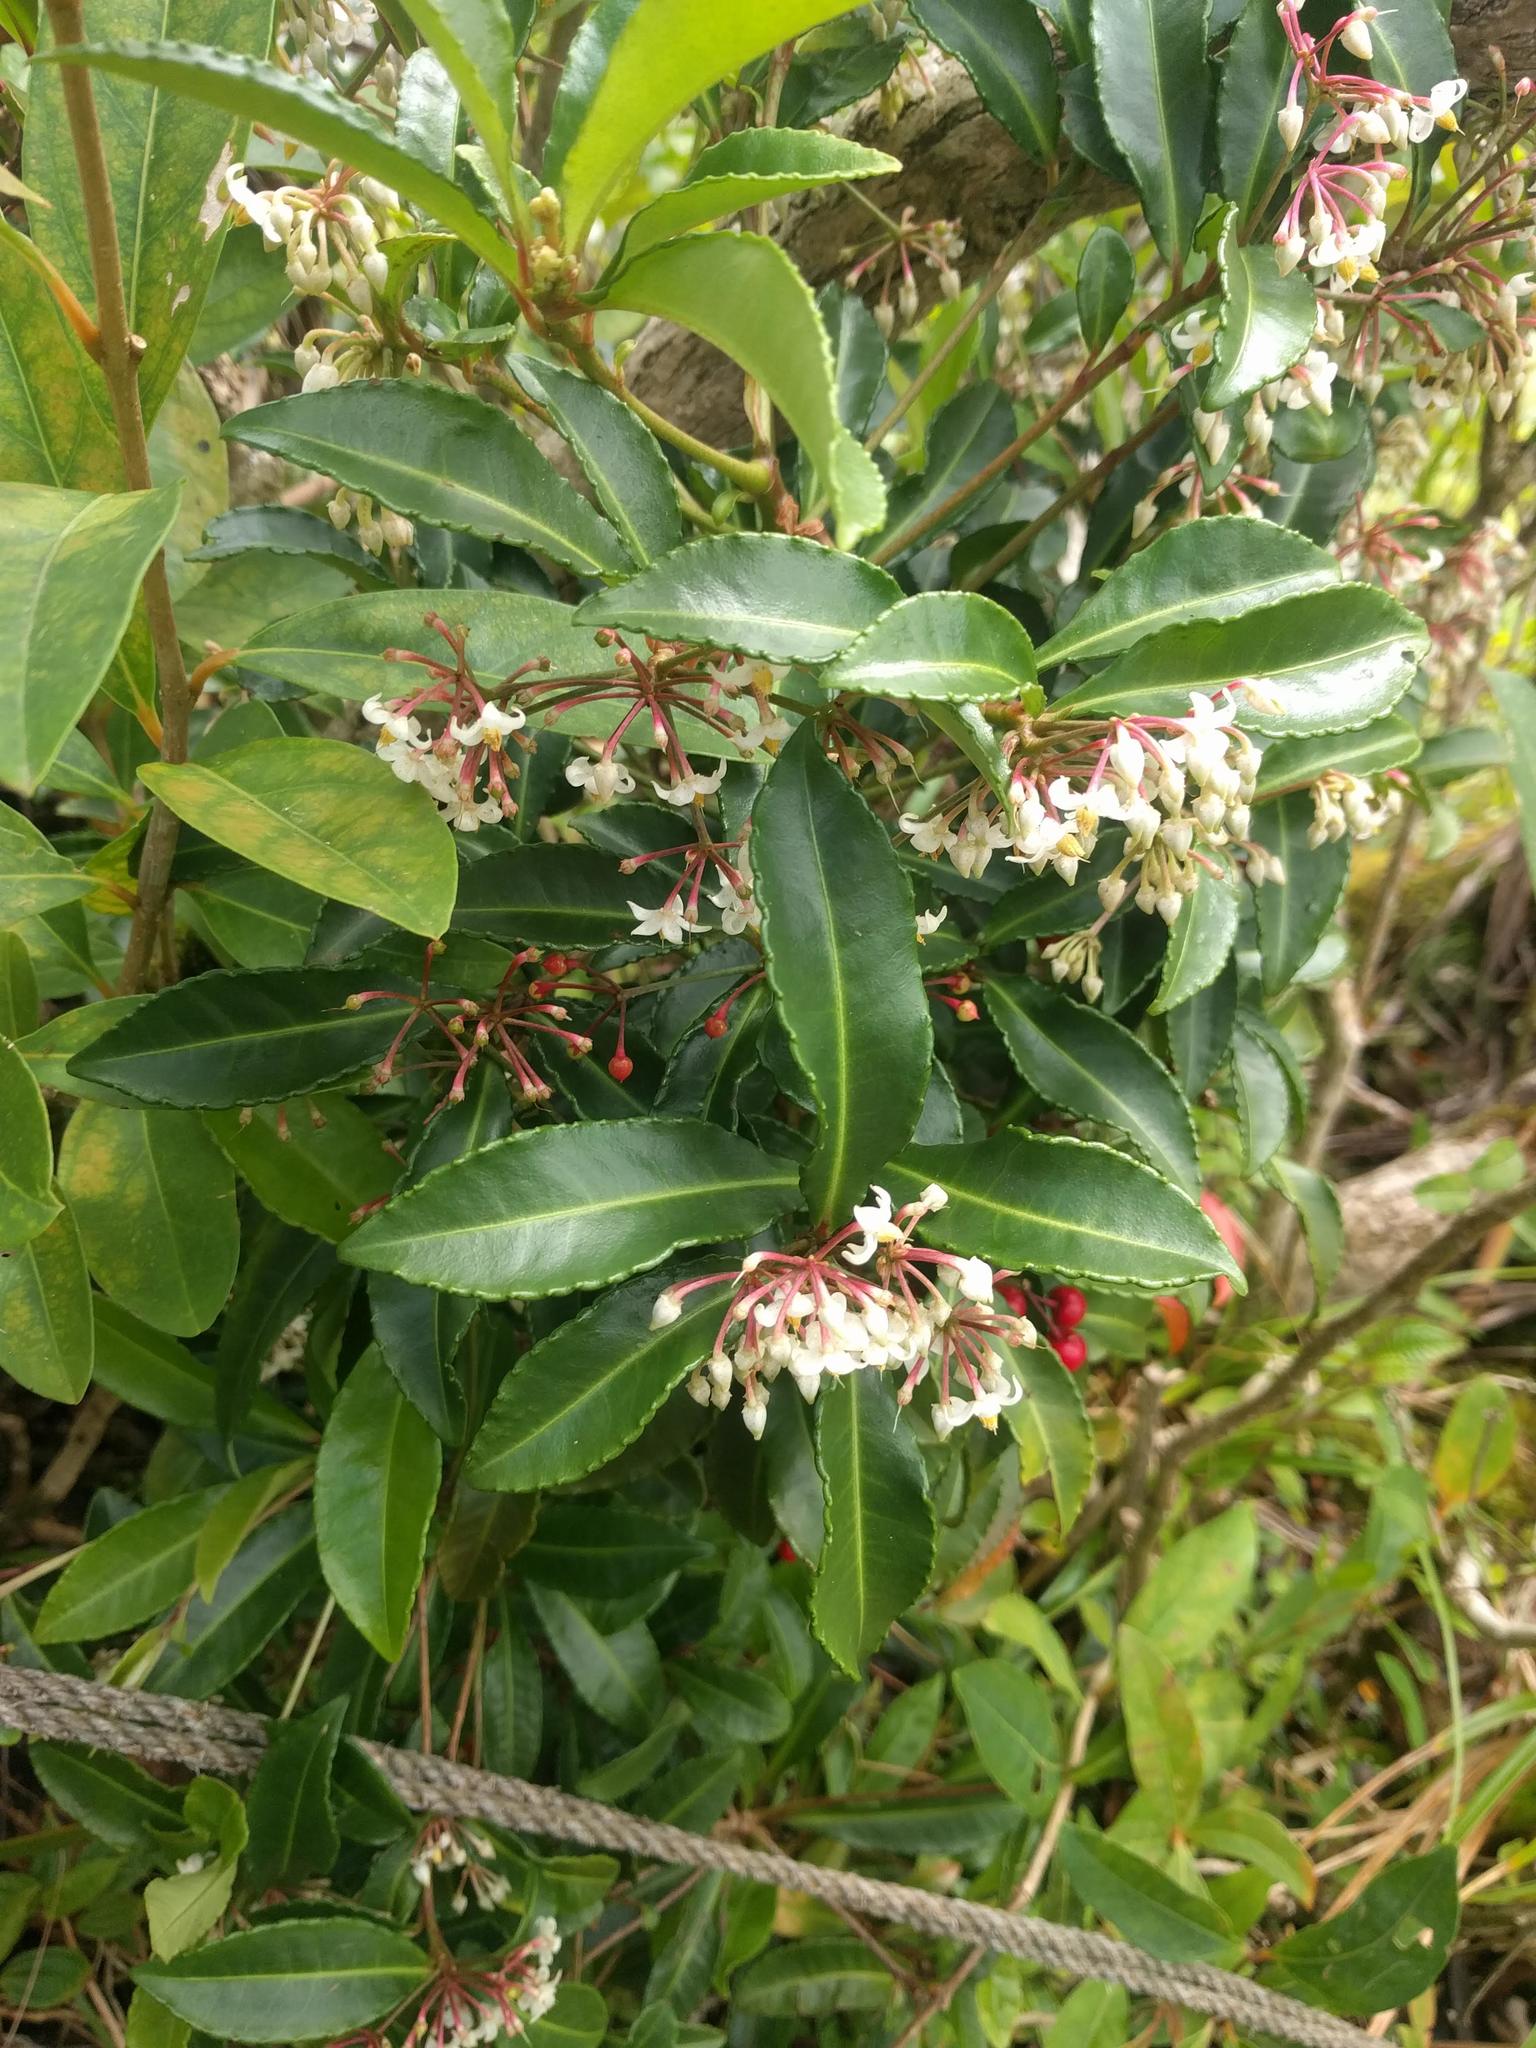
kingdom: Plantae
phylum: Tracheophyta
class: Magnoliopsida
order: Ericales
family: Primulaceae
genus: Ardisia
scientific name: Ardisia crenata
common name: Hen's eyes
